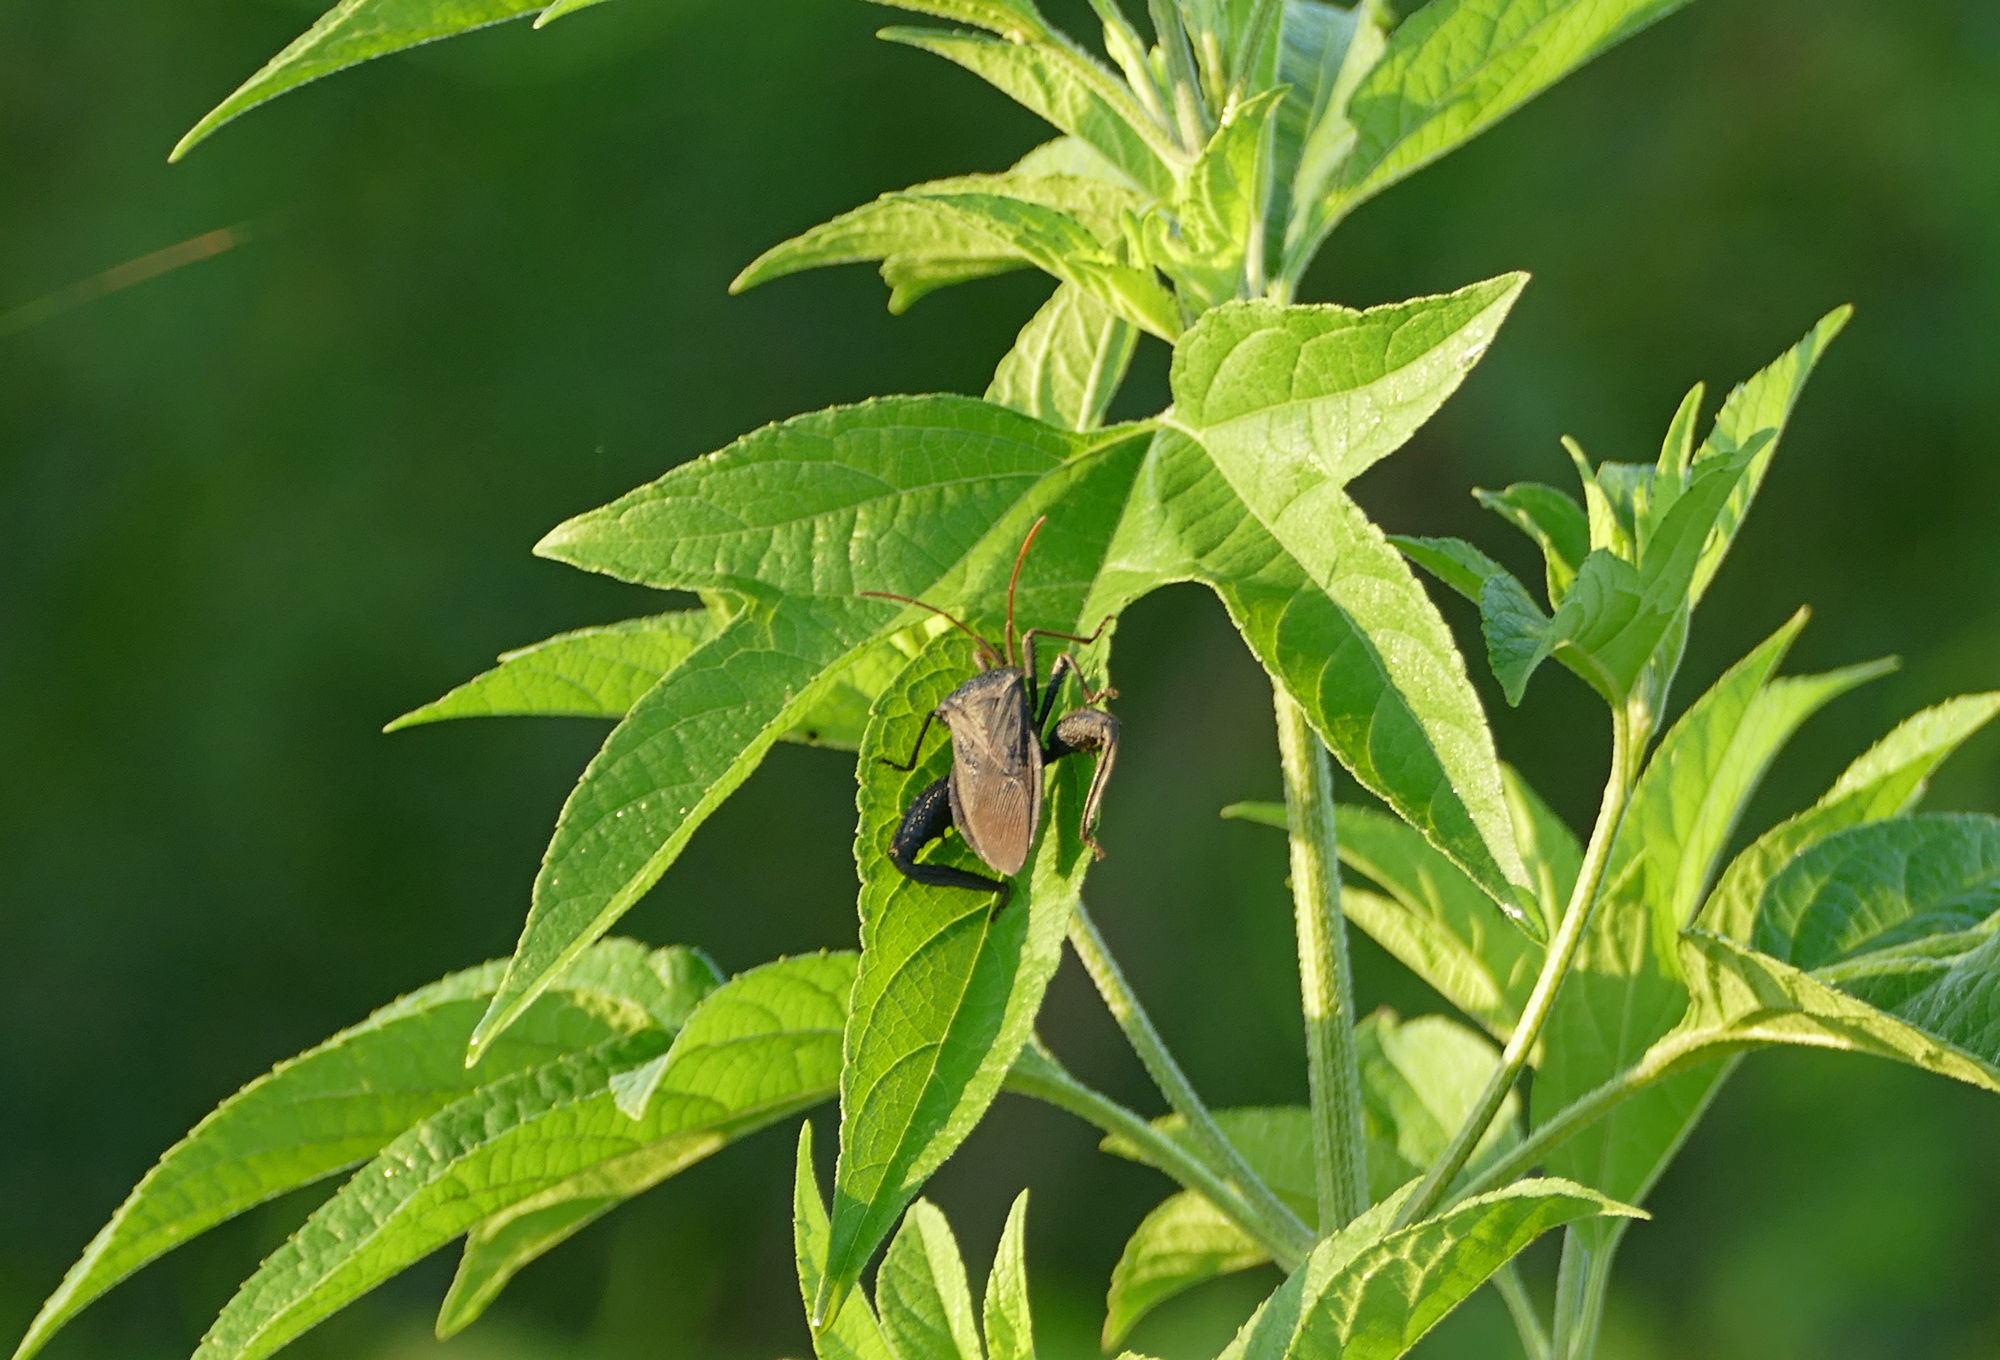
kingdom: Plantae
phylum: Tracheophyta
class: Magnoliopsida
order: Asterales
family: Asteraceae
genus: Ambrosia
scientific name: Ambrosia trifida
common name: Giant ragweed
